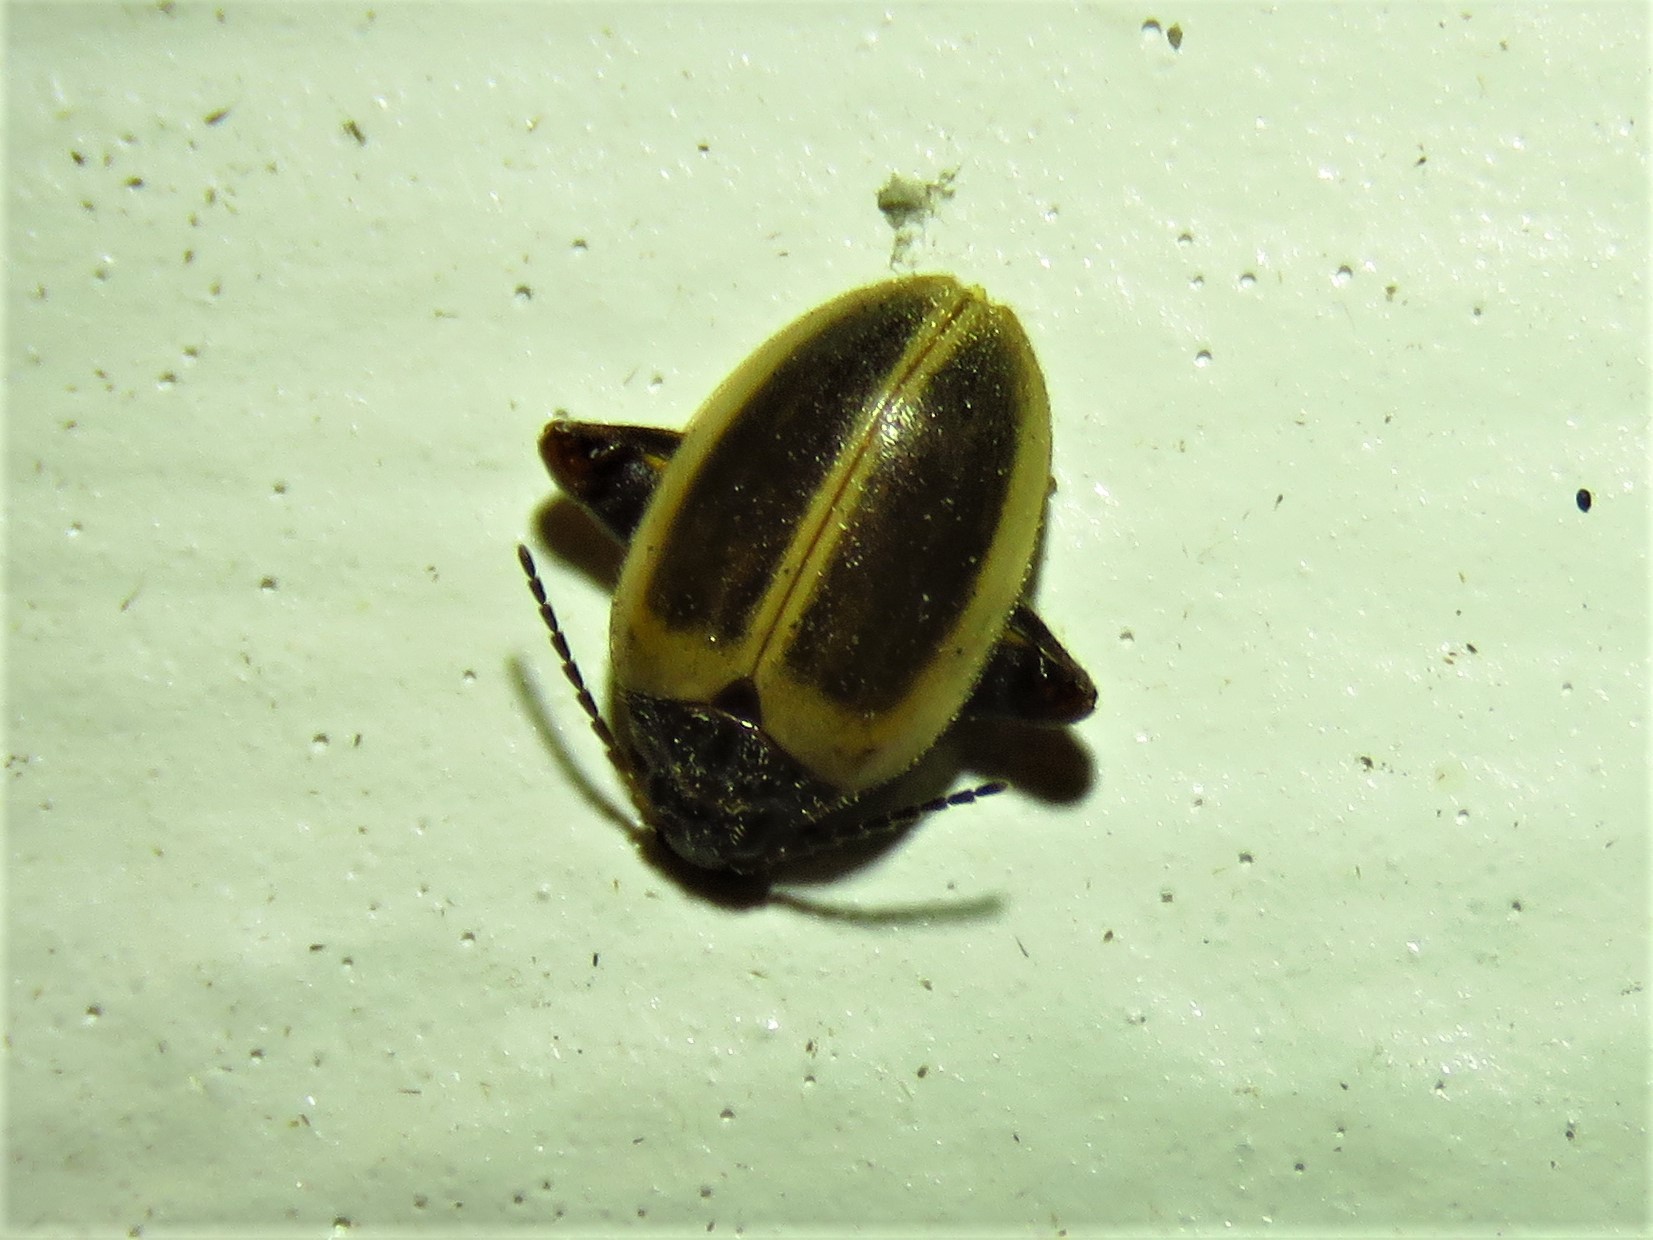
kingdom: Animalia
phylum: Arthropoda
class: Insecta
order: Coleoptera
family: Scirtidae
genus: Ora
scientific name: Ora discoidea
